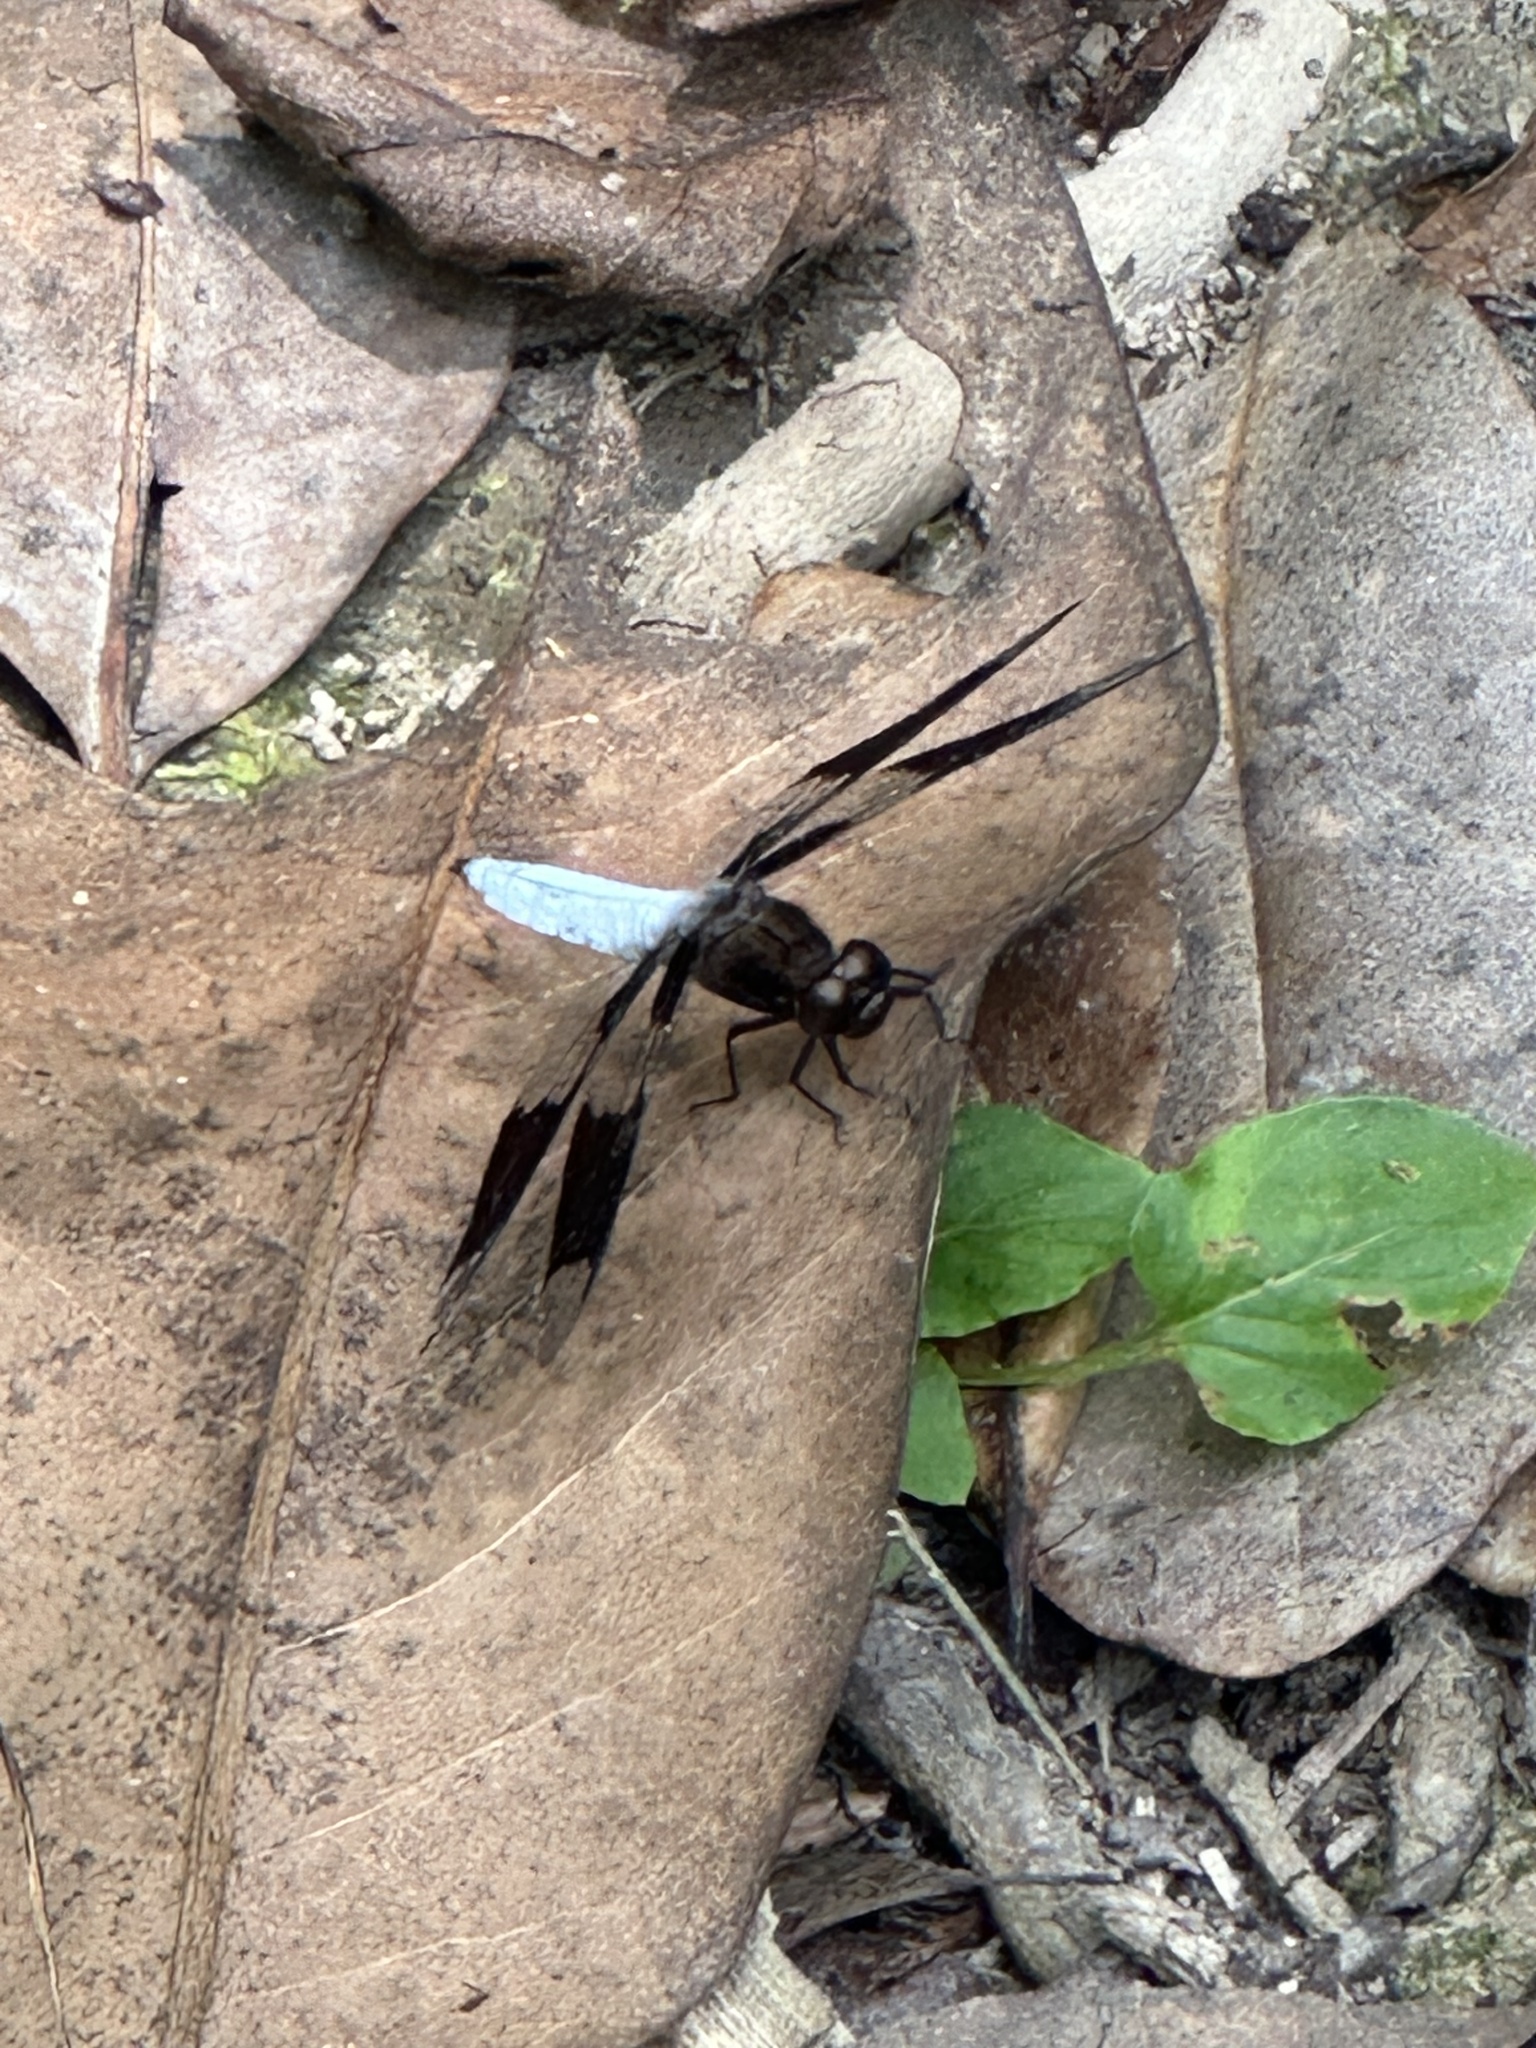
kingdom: Animalia
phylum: Arthropoda
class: Insecta
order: Odonata
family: Libellulidae
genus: Plathemis
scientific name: Plathemis lydia
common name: Common whitetail
